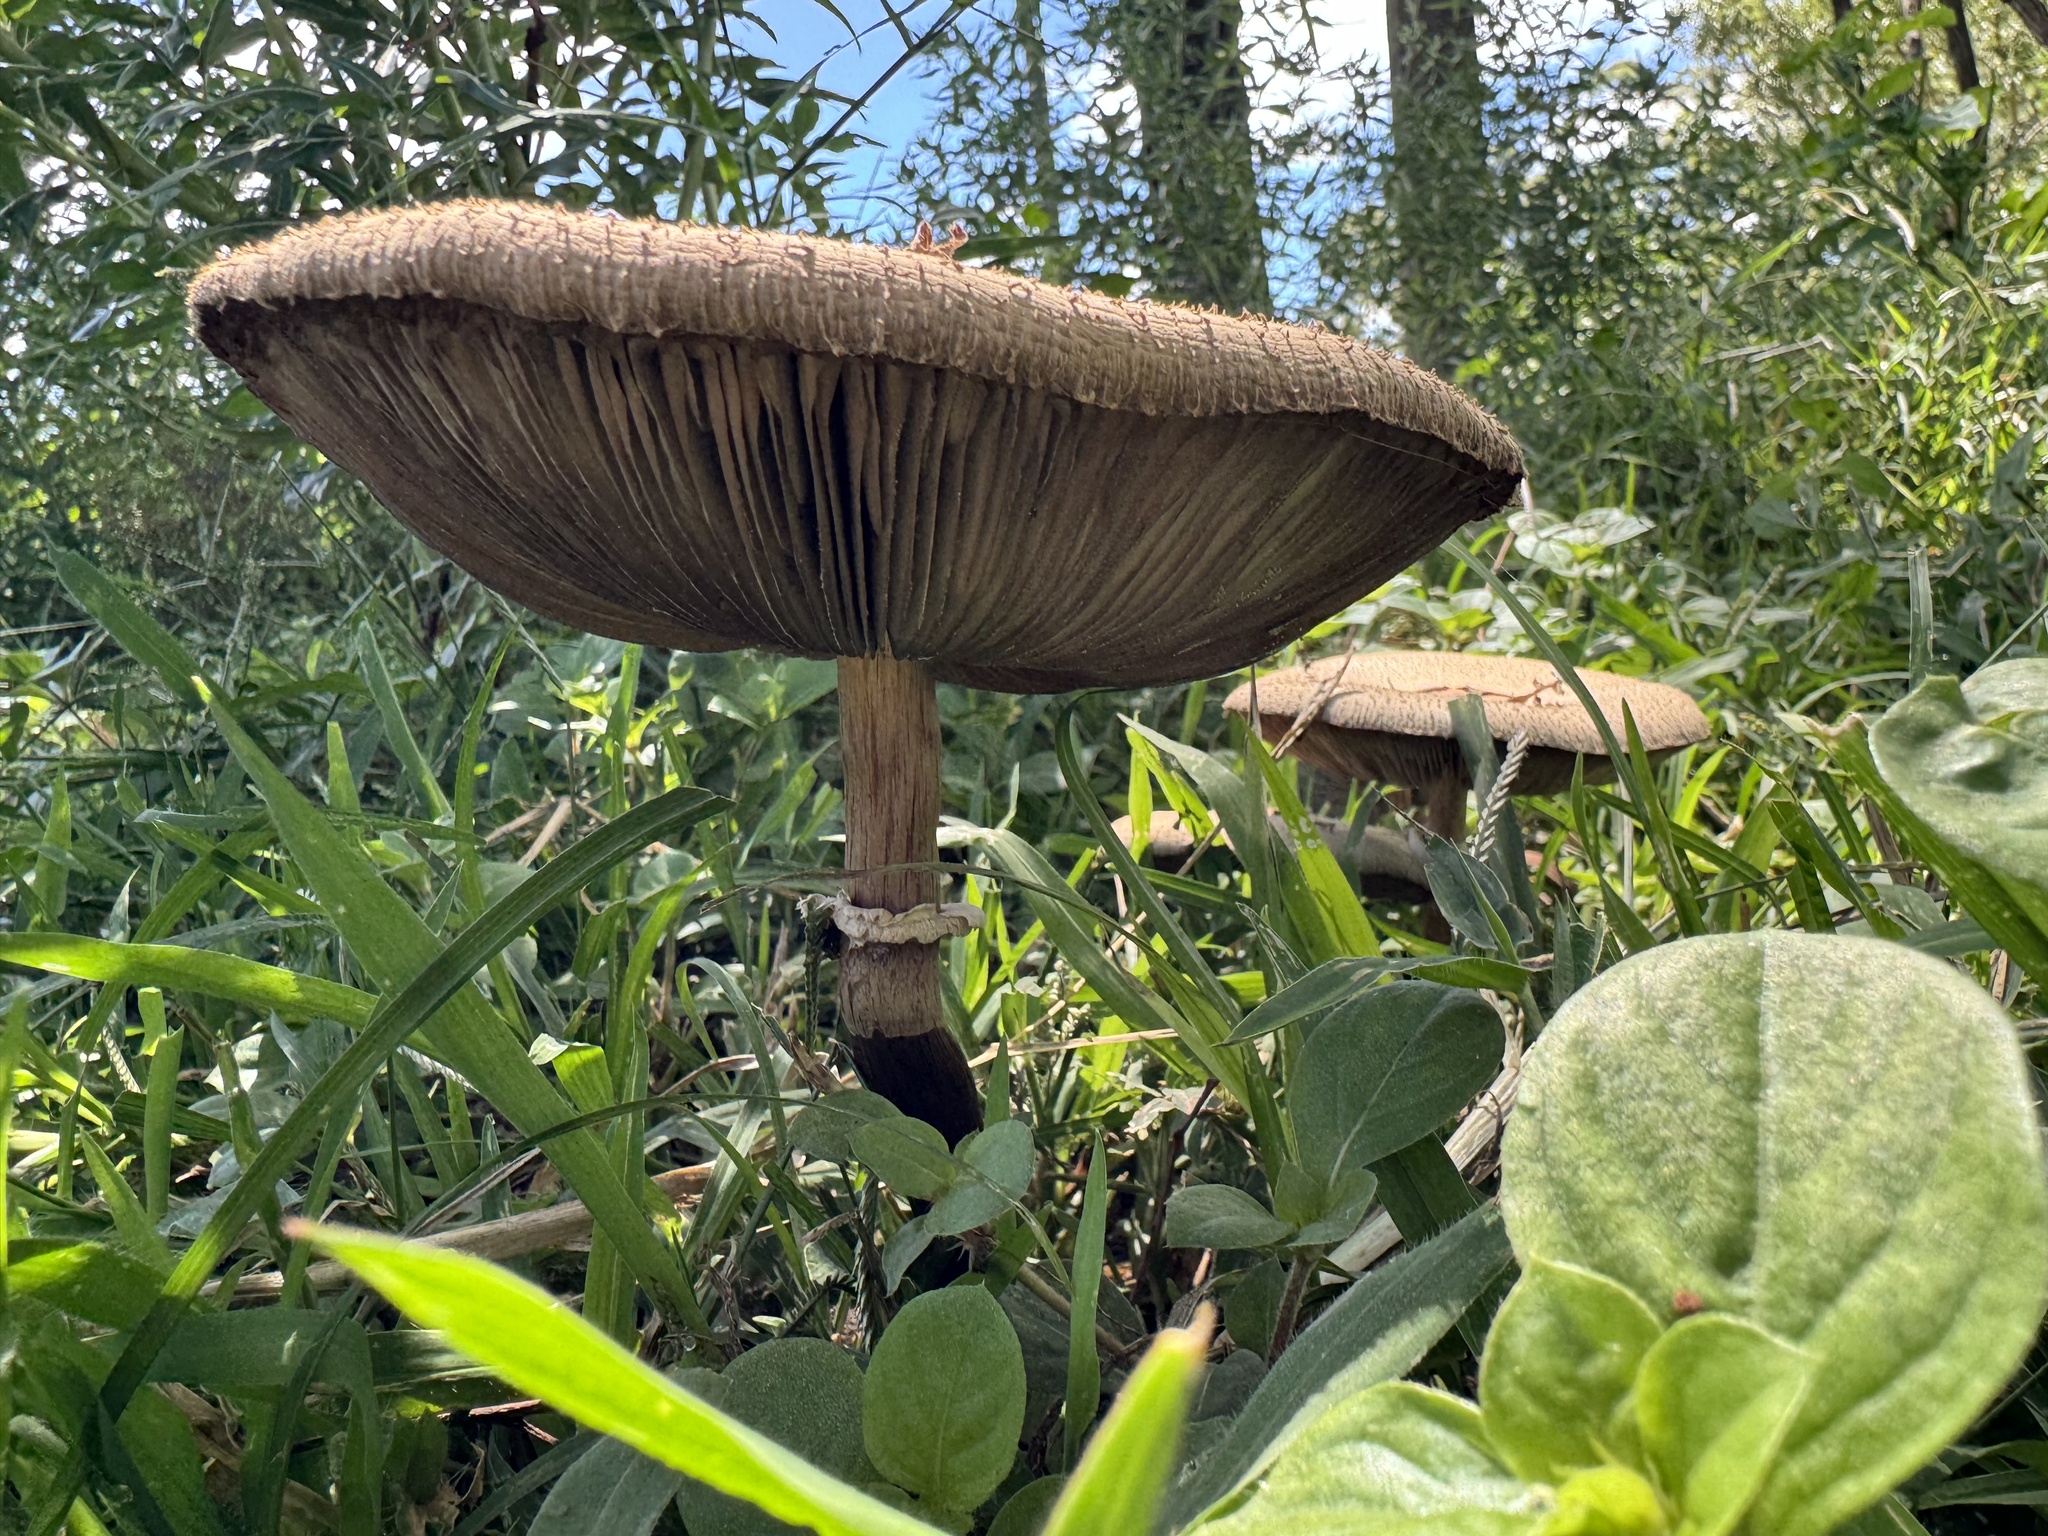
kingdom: Fungi
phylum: Basidiomycota
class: Agaricomycetes
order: Agaricales
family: Agaricaceae
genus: Chlorophyllum
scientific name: Chlorophyllum molybdites
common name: False parasol
